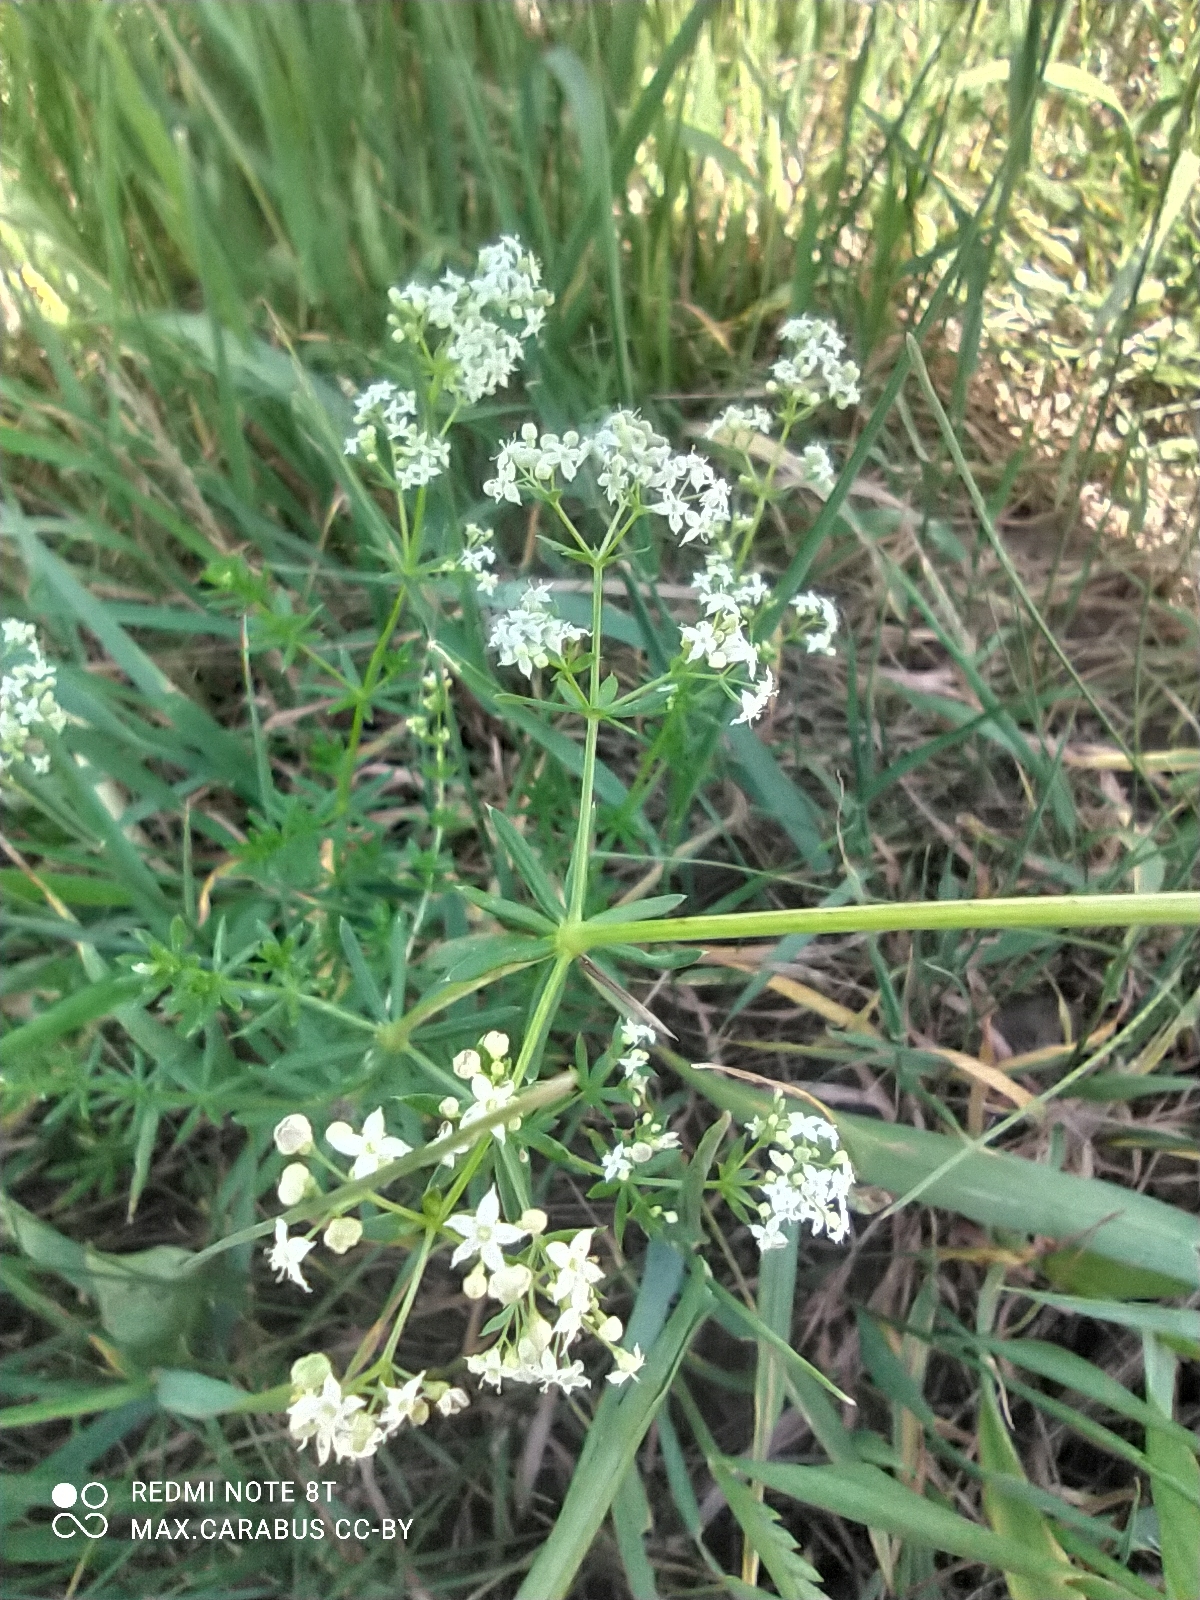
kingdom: Plantae
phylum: Tracheophyta
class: Magnoliopsida
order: Gentianales
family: Rubiaceae
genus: Galium
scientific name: Galium mollugo
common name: Hedge bedstraw
